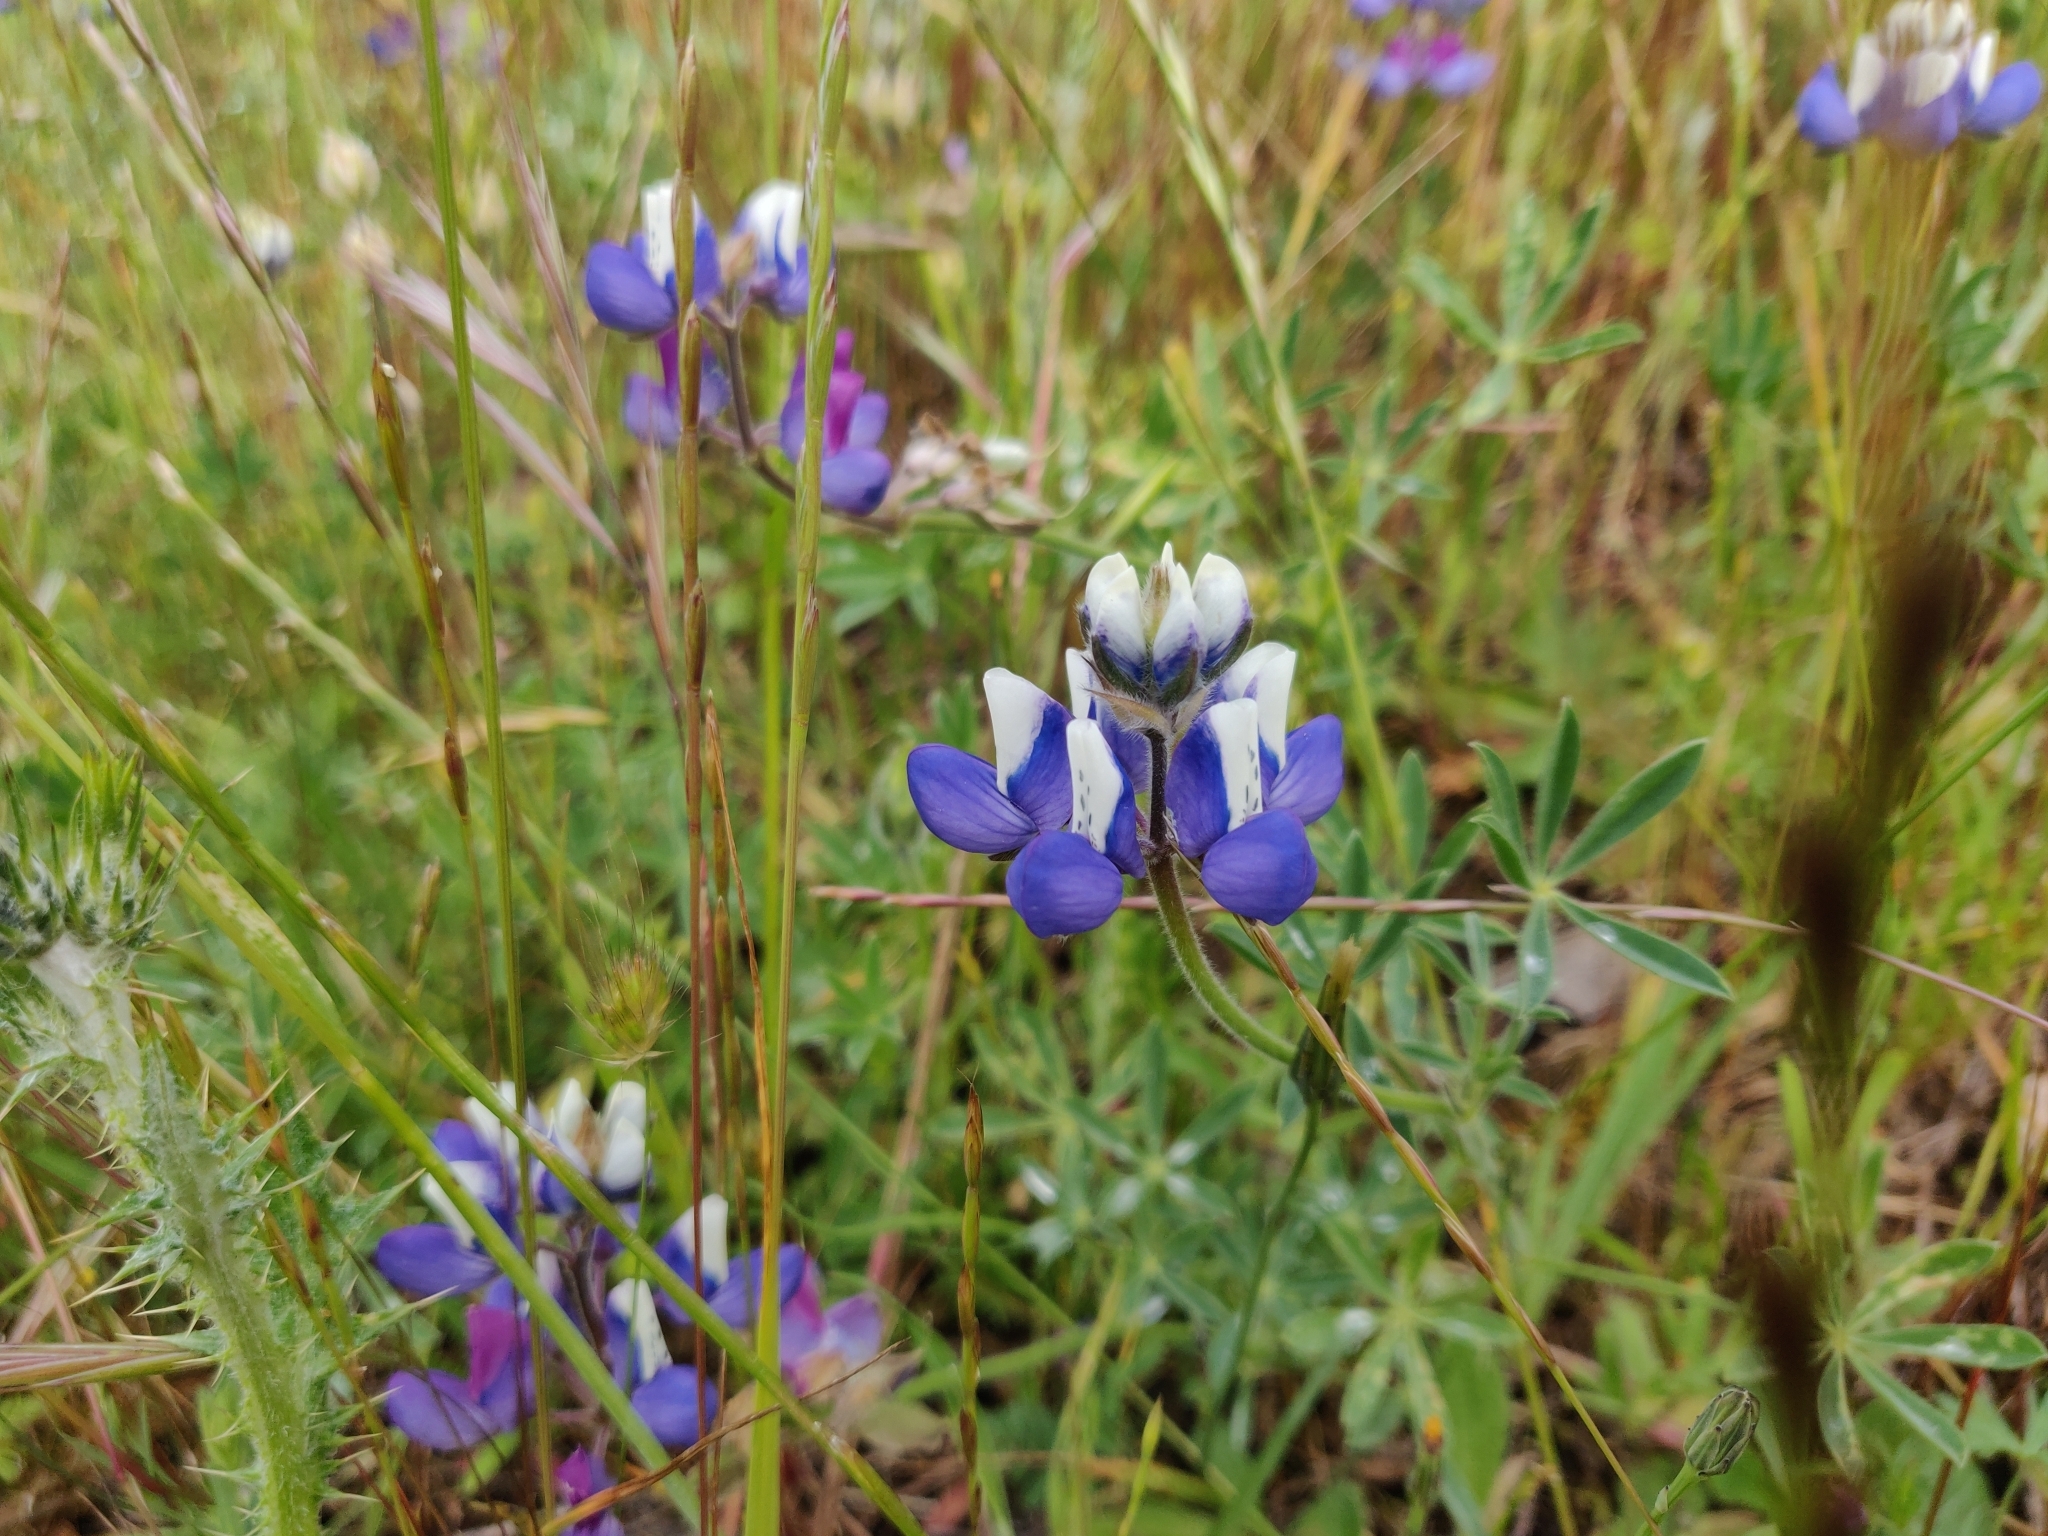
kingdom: Plantae
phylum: Tracheophyta
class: Magnoliopsida
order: Fabales
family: Fabaceae
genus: Lupinus
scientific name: Lupinus nanus
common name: Orean blue lupin
